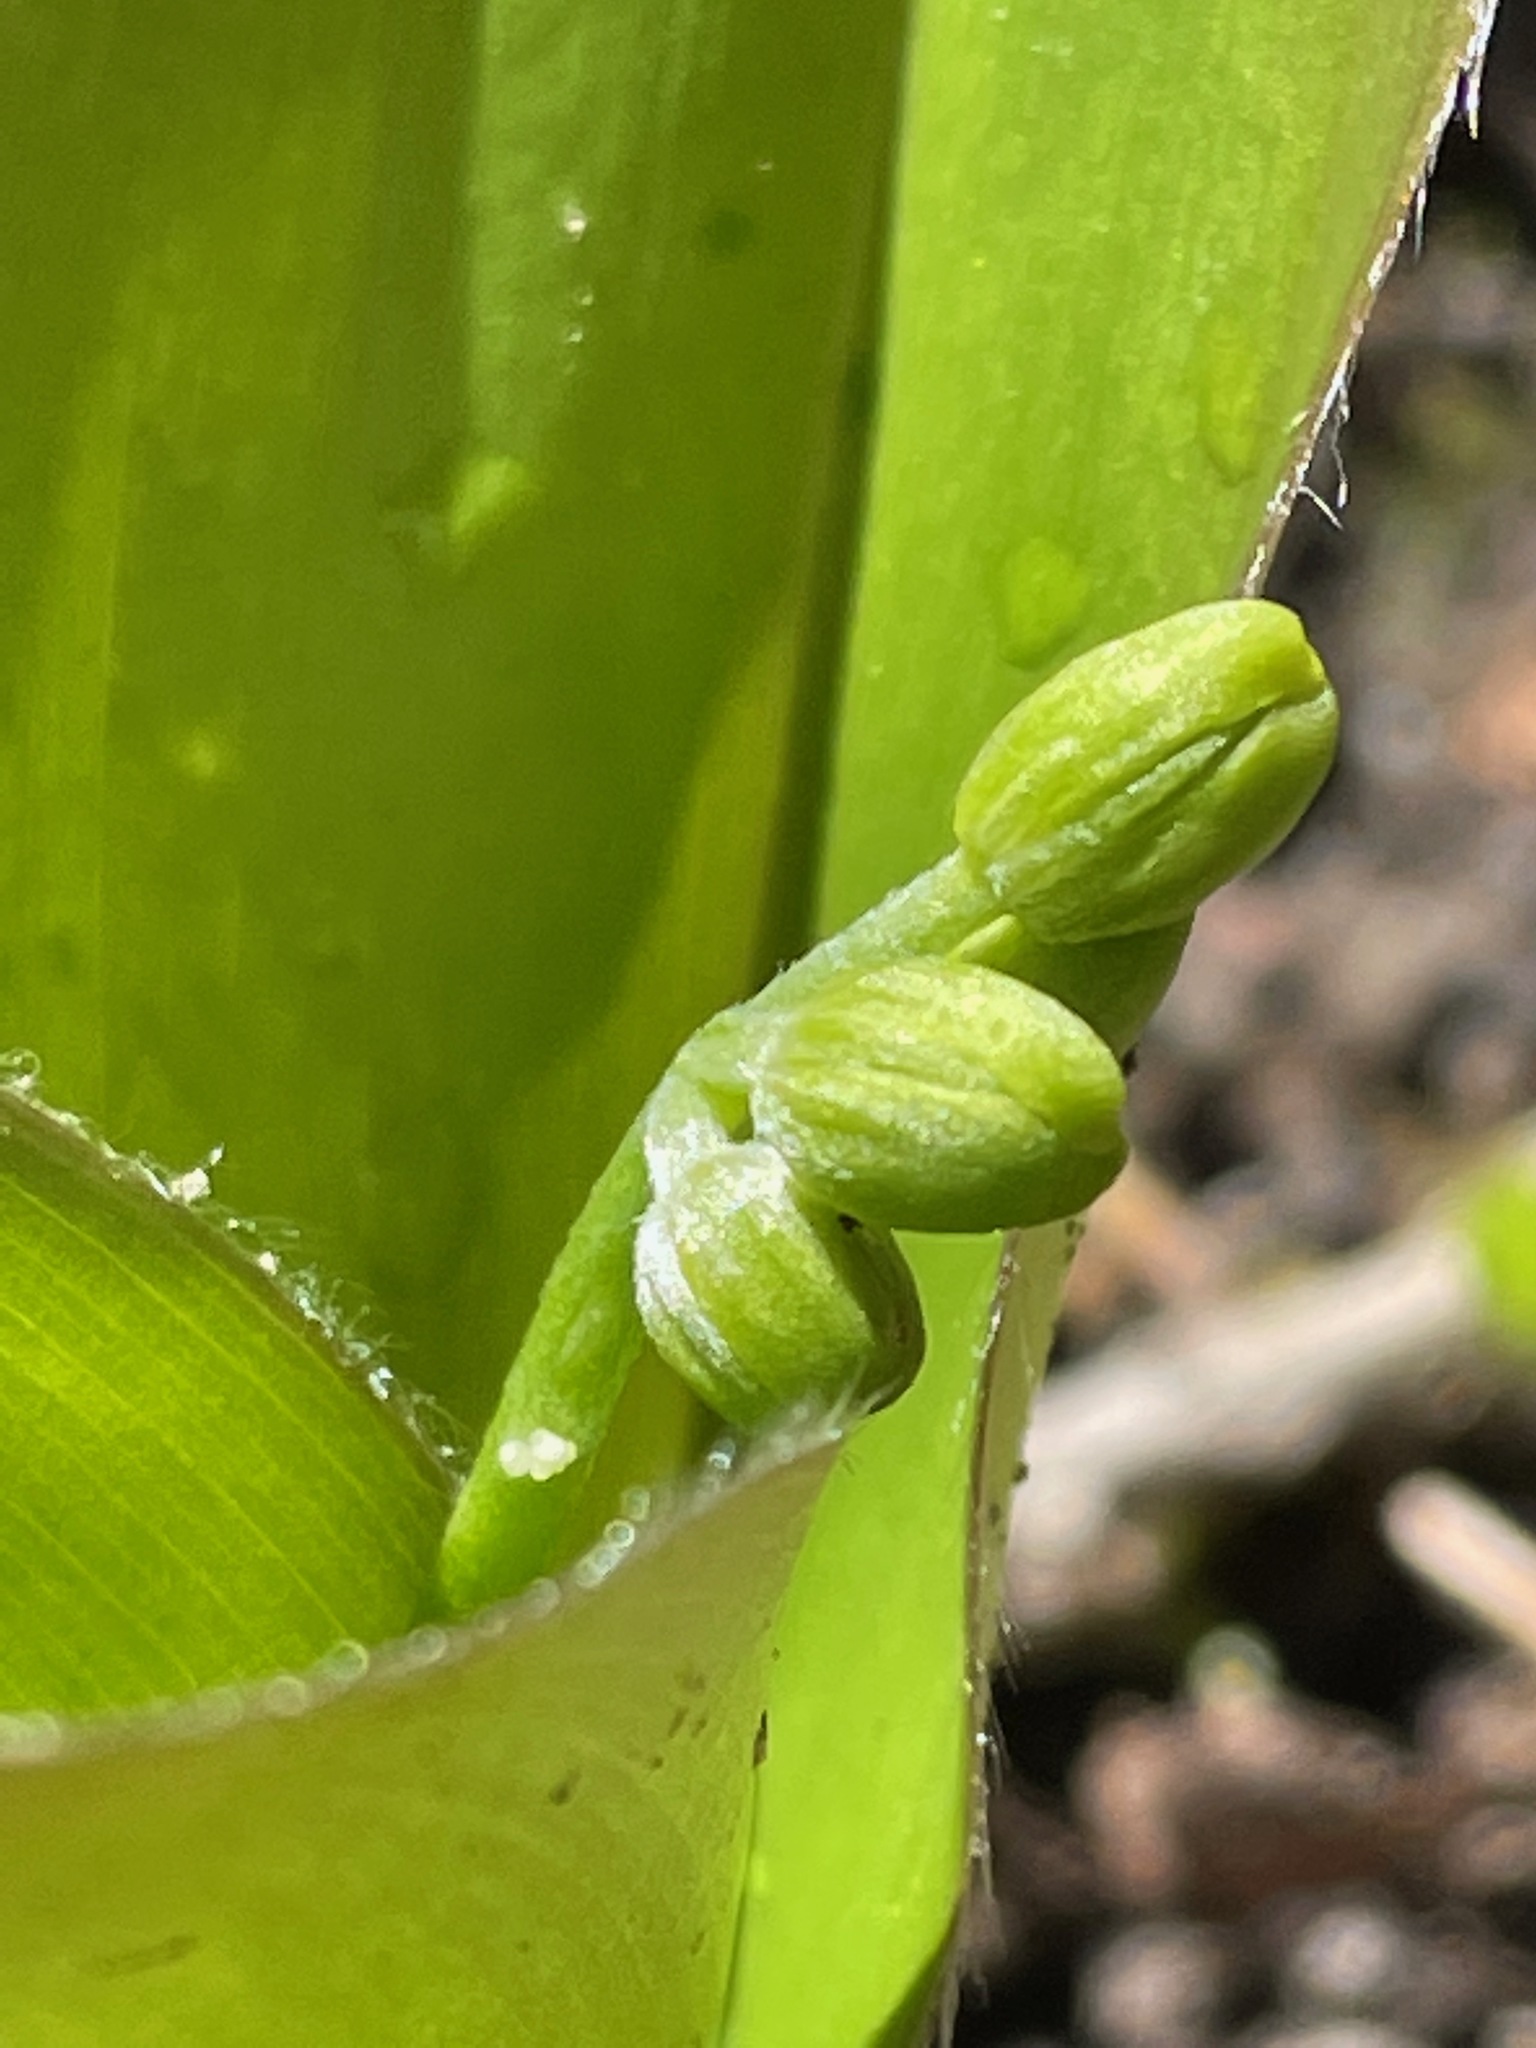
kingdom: Plantae
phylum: Tracheophyta
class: Liliopsida
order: Liliales
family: Liliaceae
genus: Clintonia
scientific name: Clintonia borealis
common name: Yellow clintonia
